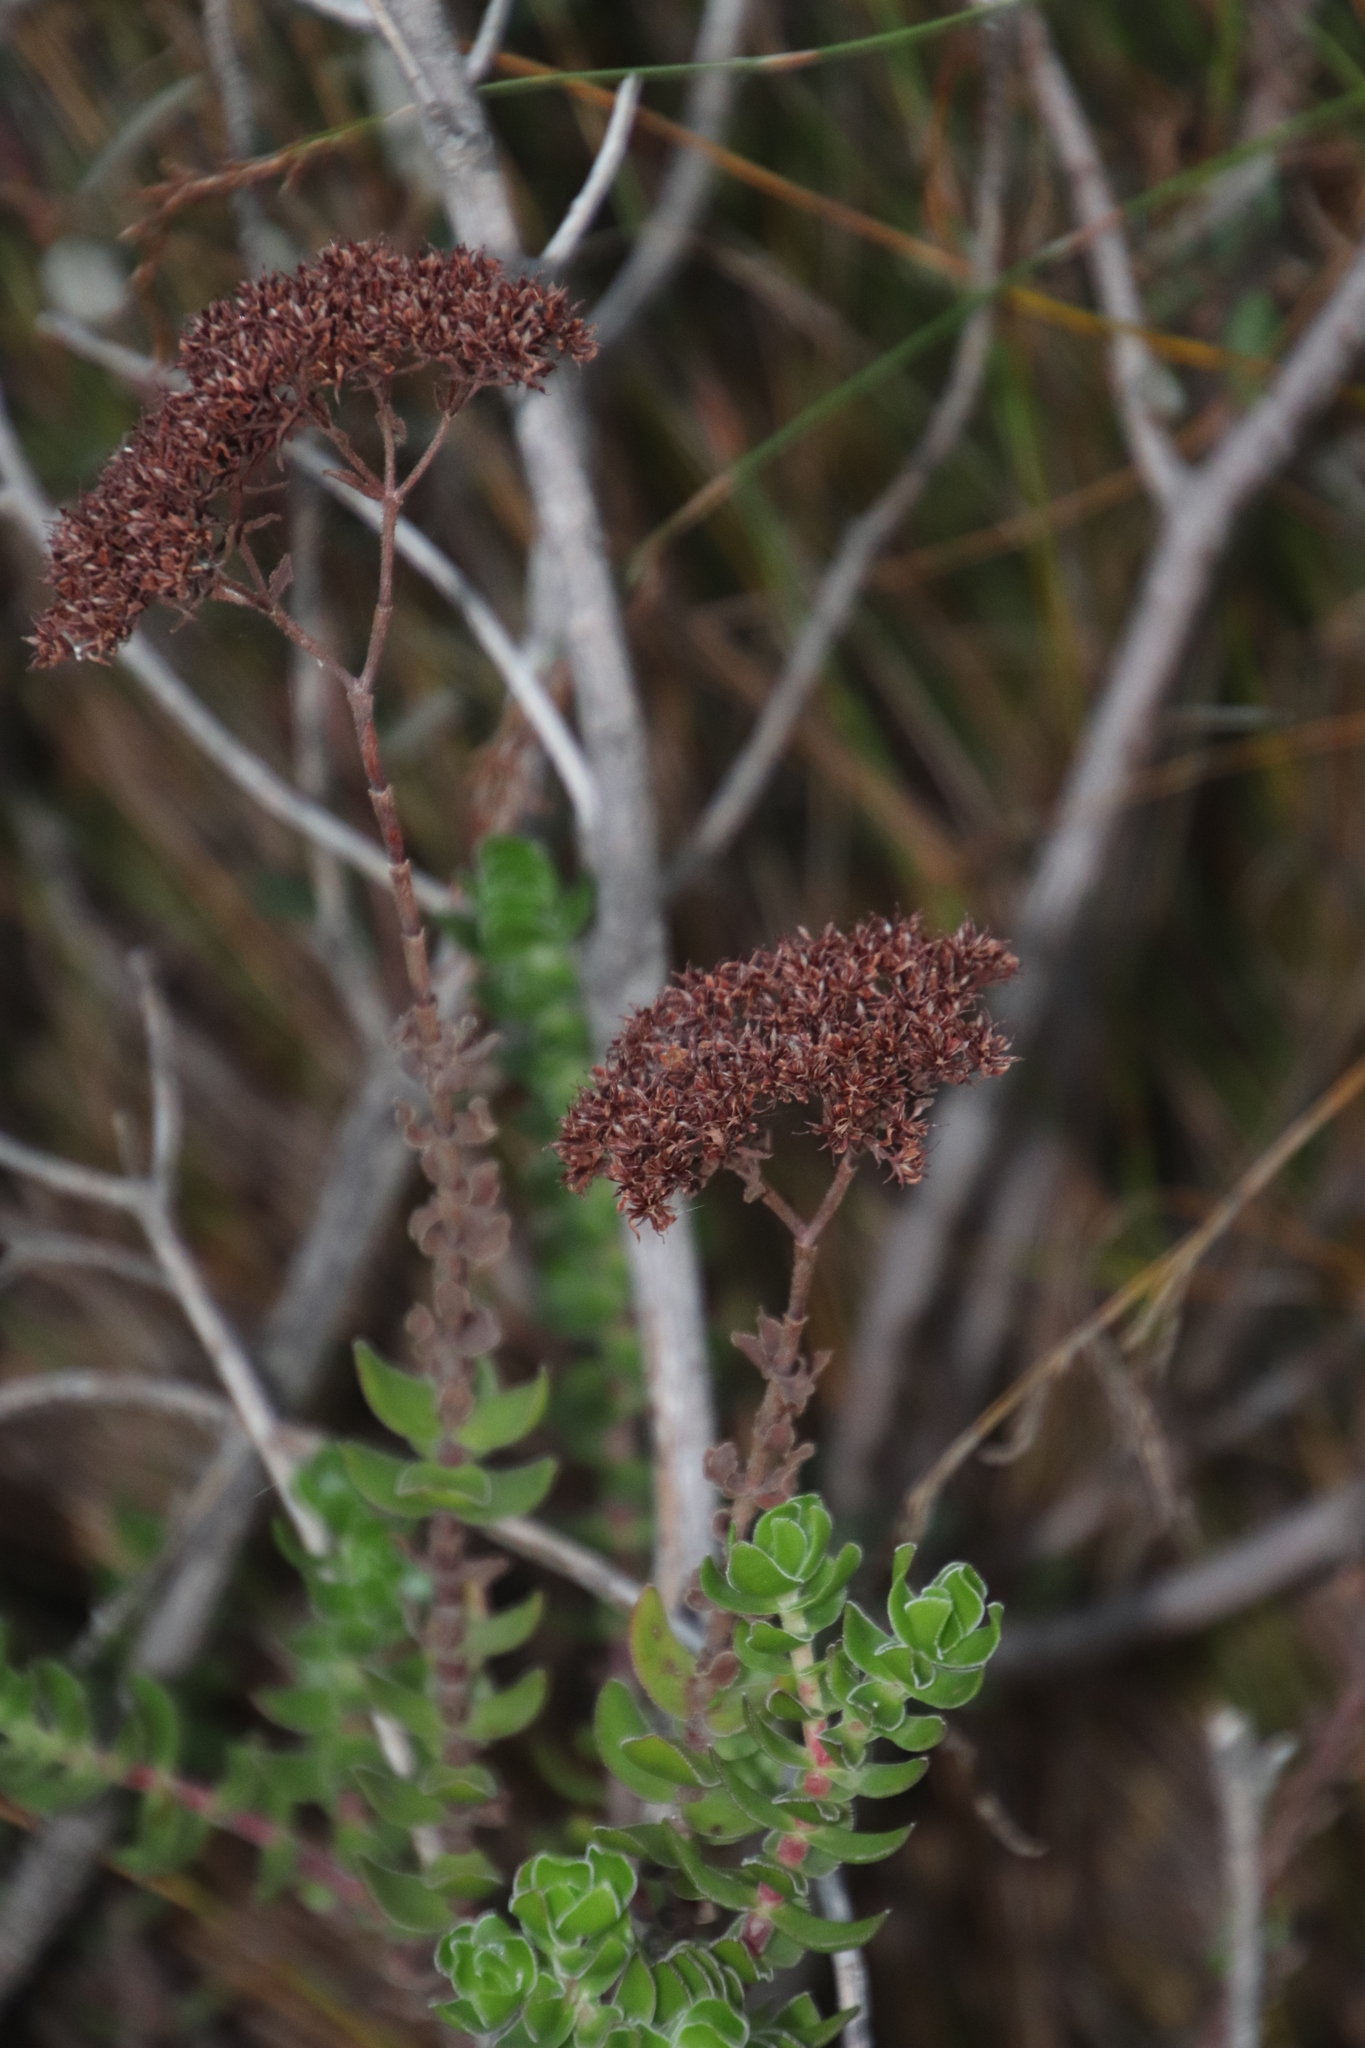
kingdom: Plantae
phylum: Tracheophyta
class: Magnoliopsida
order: Saxifragales
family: Crassulaceae
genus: Crassula
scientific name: Crassula undulata
